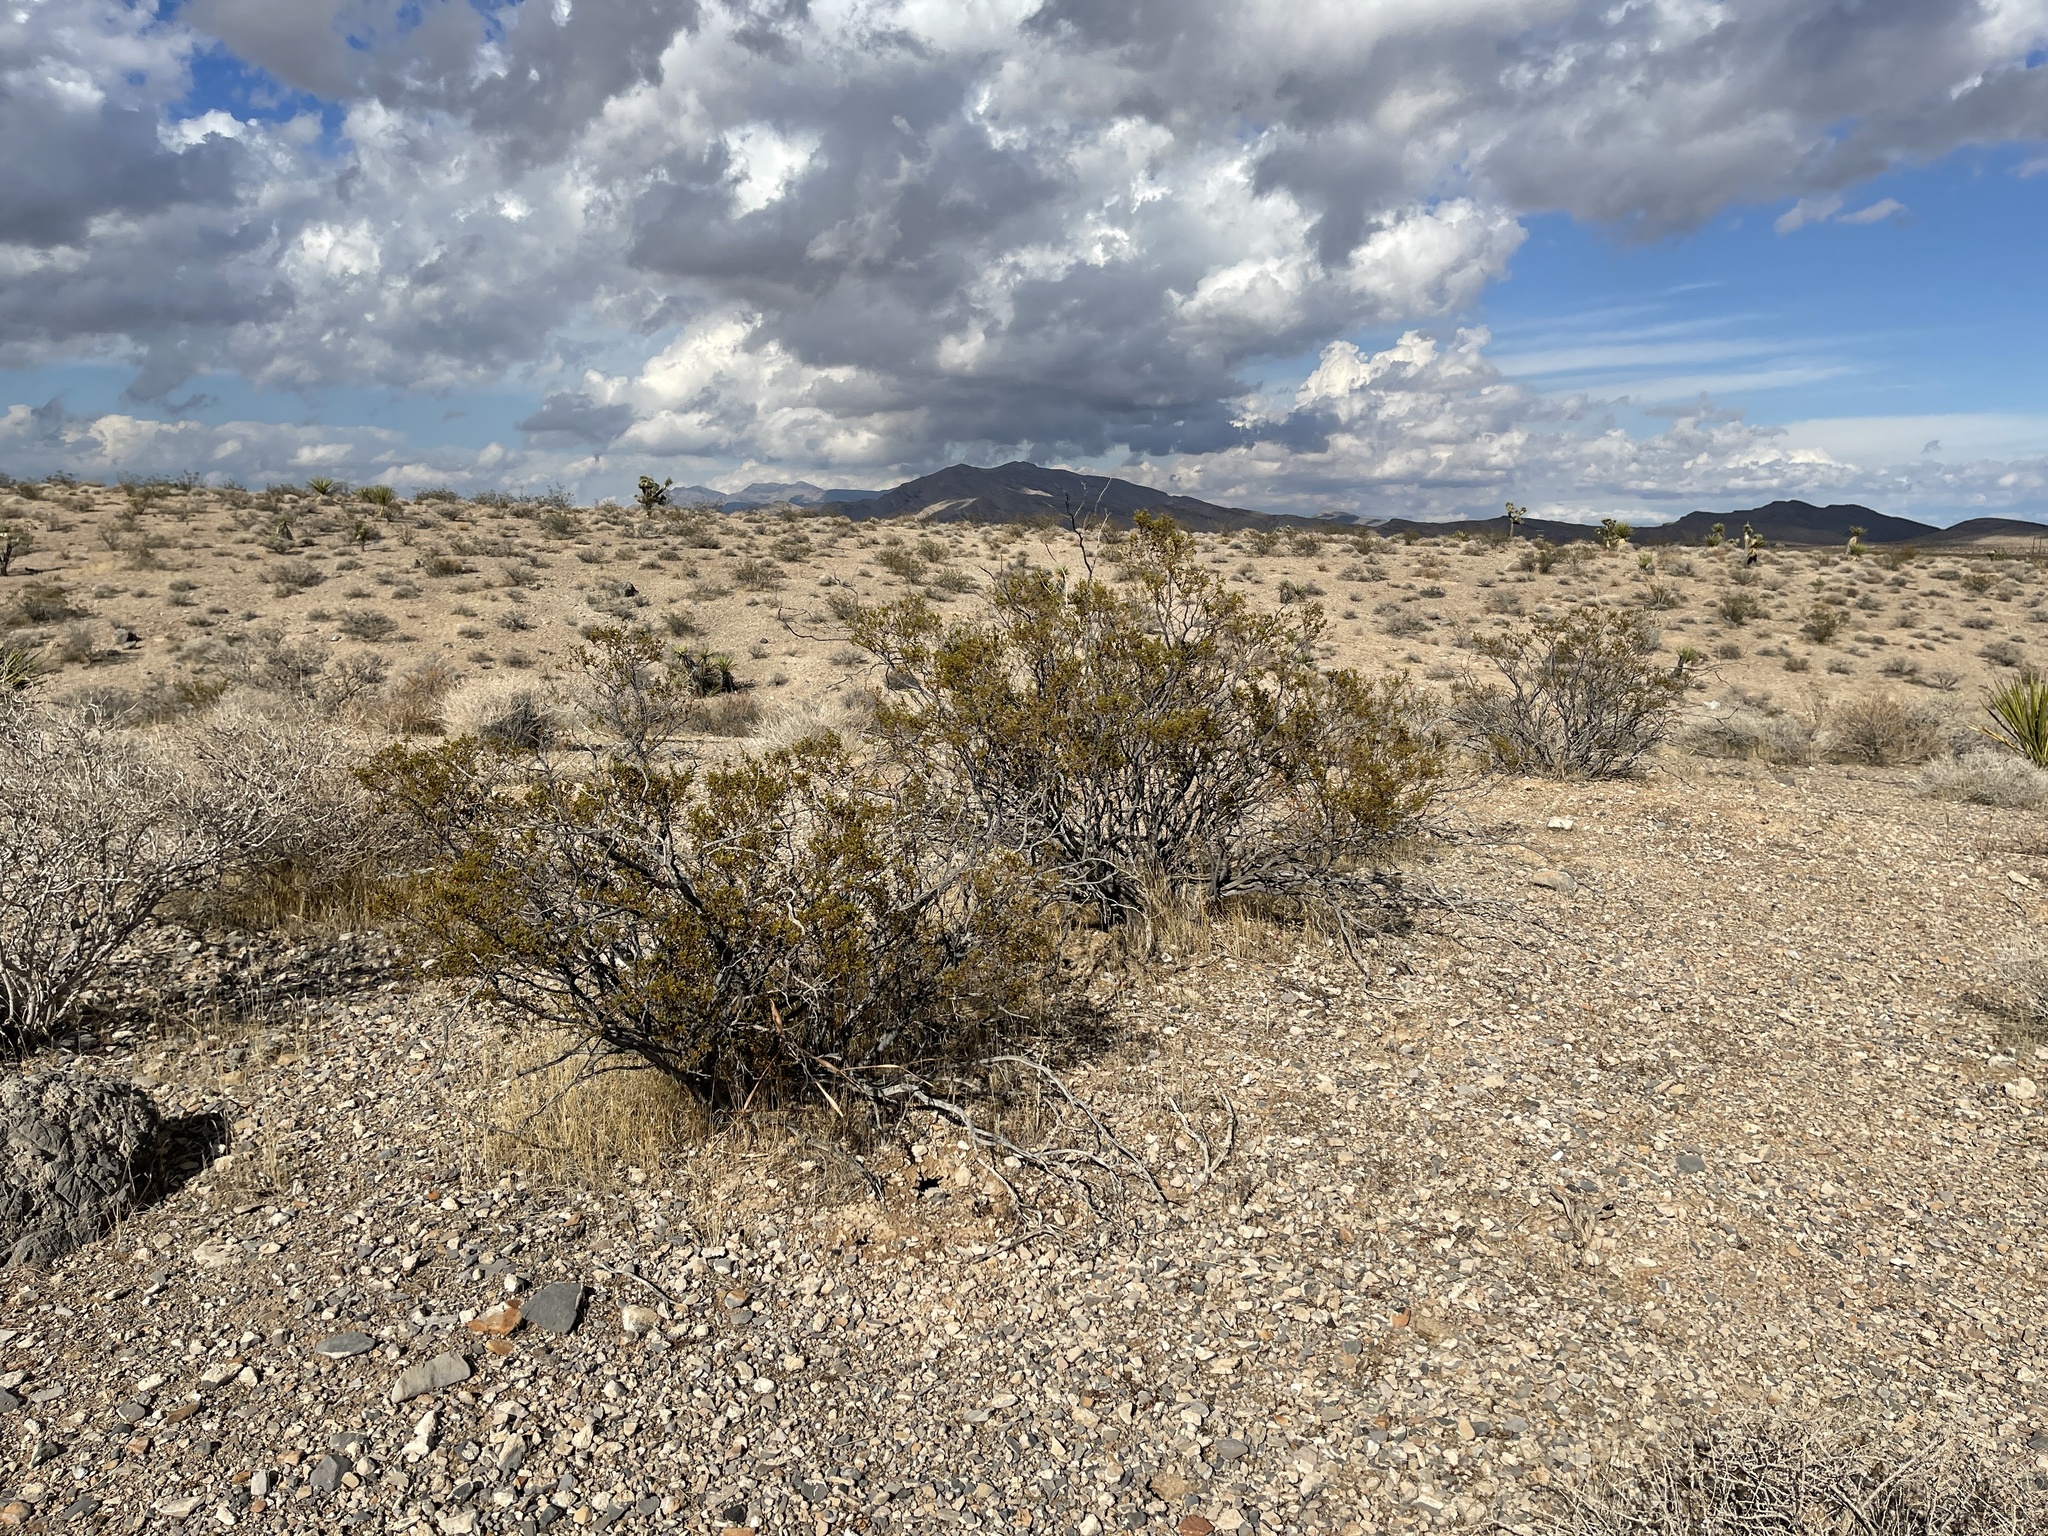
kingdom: Plantae
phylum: Tracheophyta
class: Magnoliopsida
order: Zygophyllales
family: Zygophyllaceae
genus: Larrea
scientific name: Larrea tridentata
